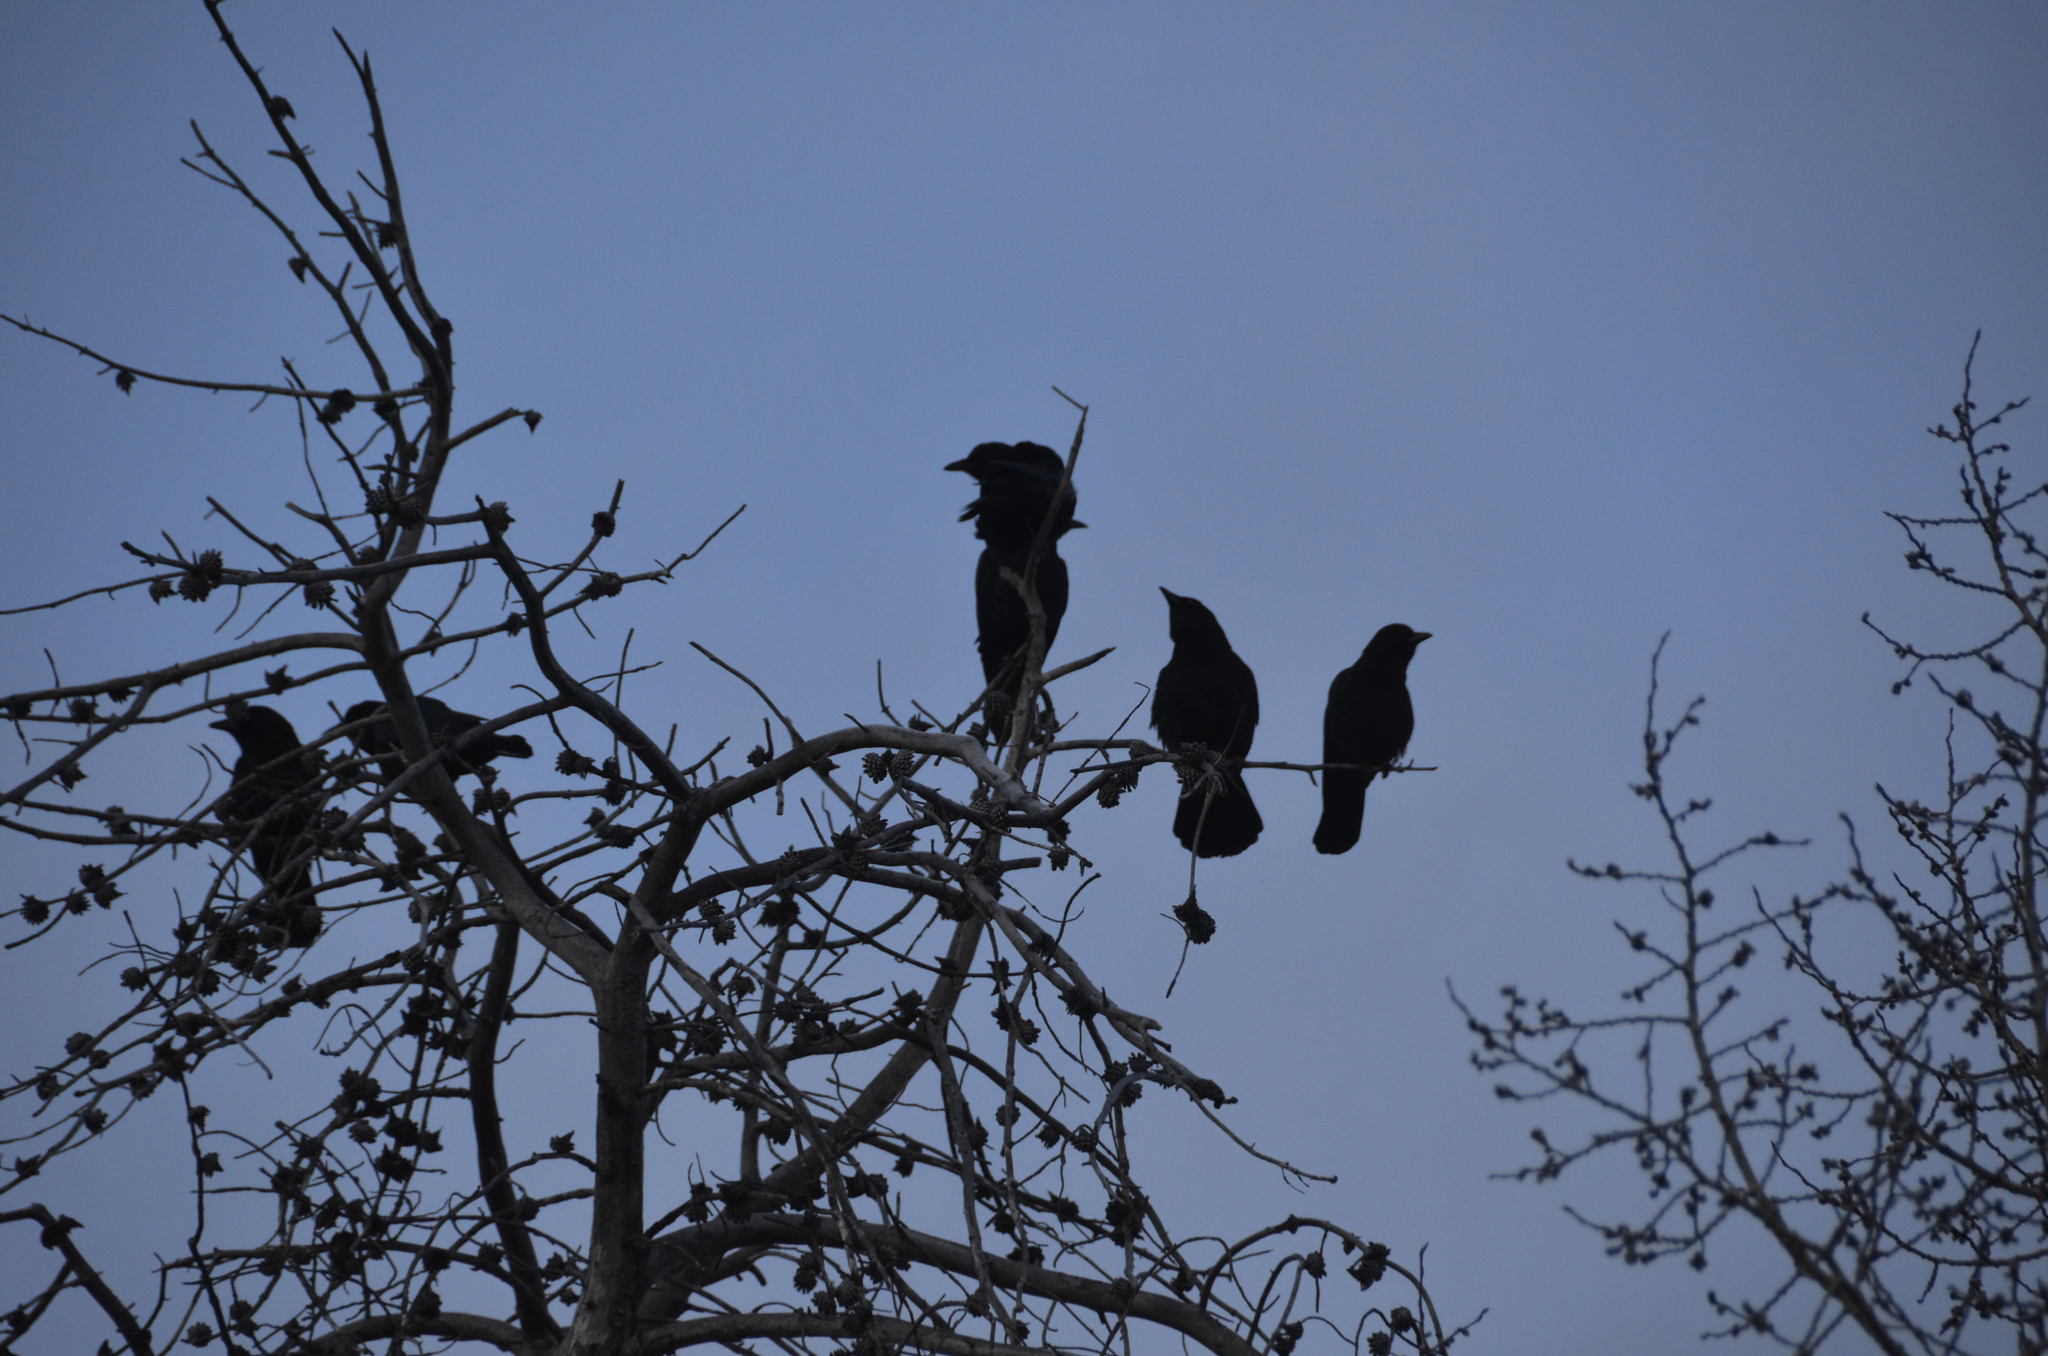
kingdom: Animalia
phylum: Chordata
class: Aves
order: Passeriformes
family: Corvidae
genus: Corvus
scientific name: Corvus brachyrhynchos
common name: American crow
